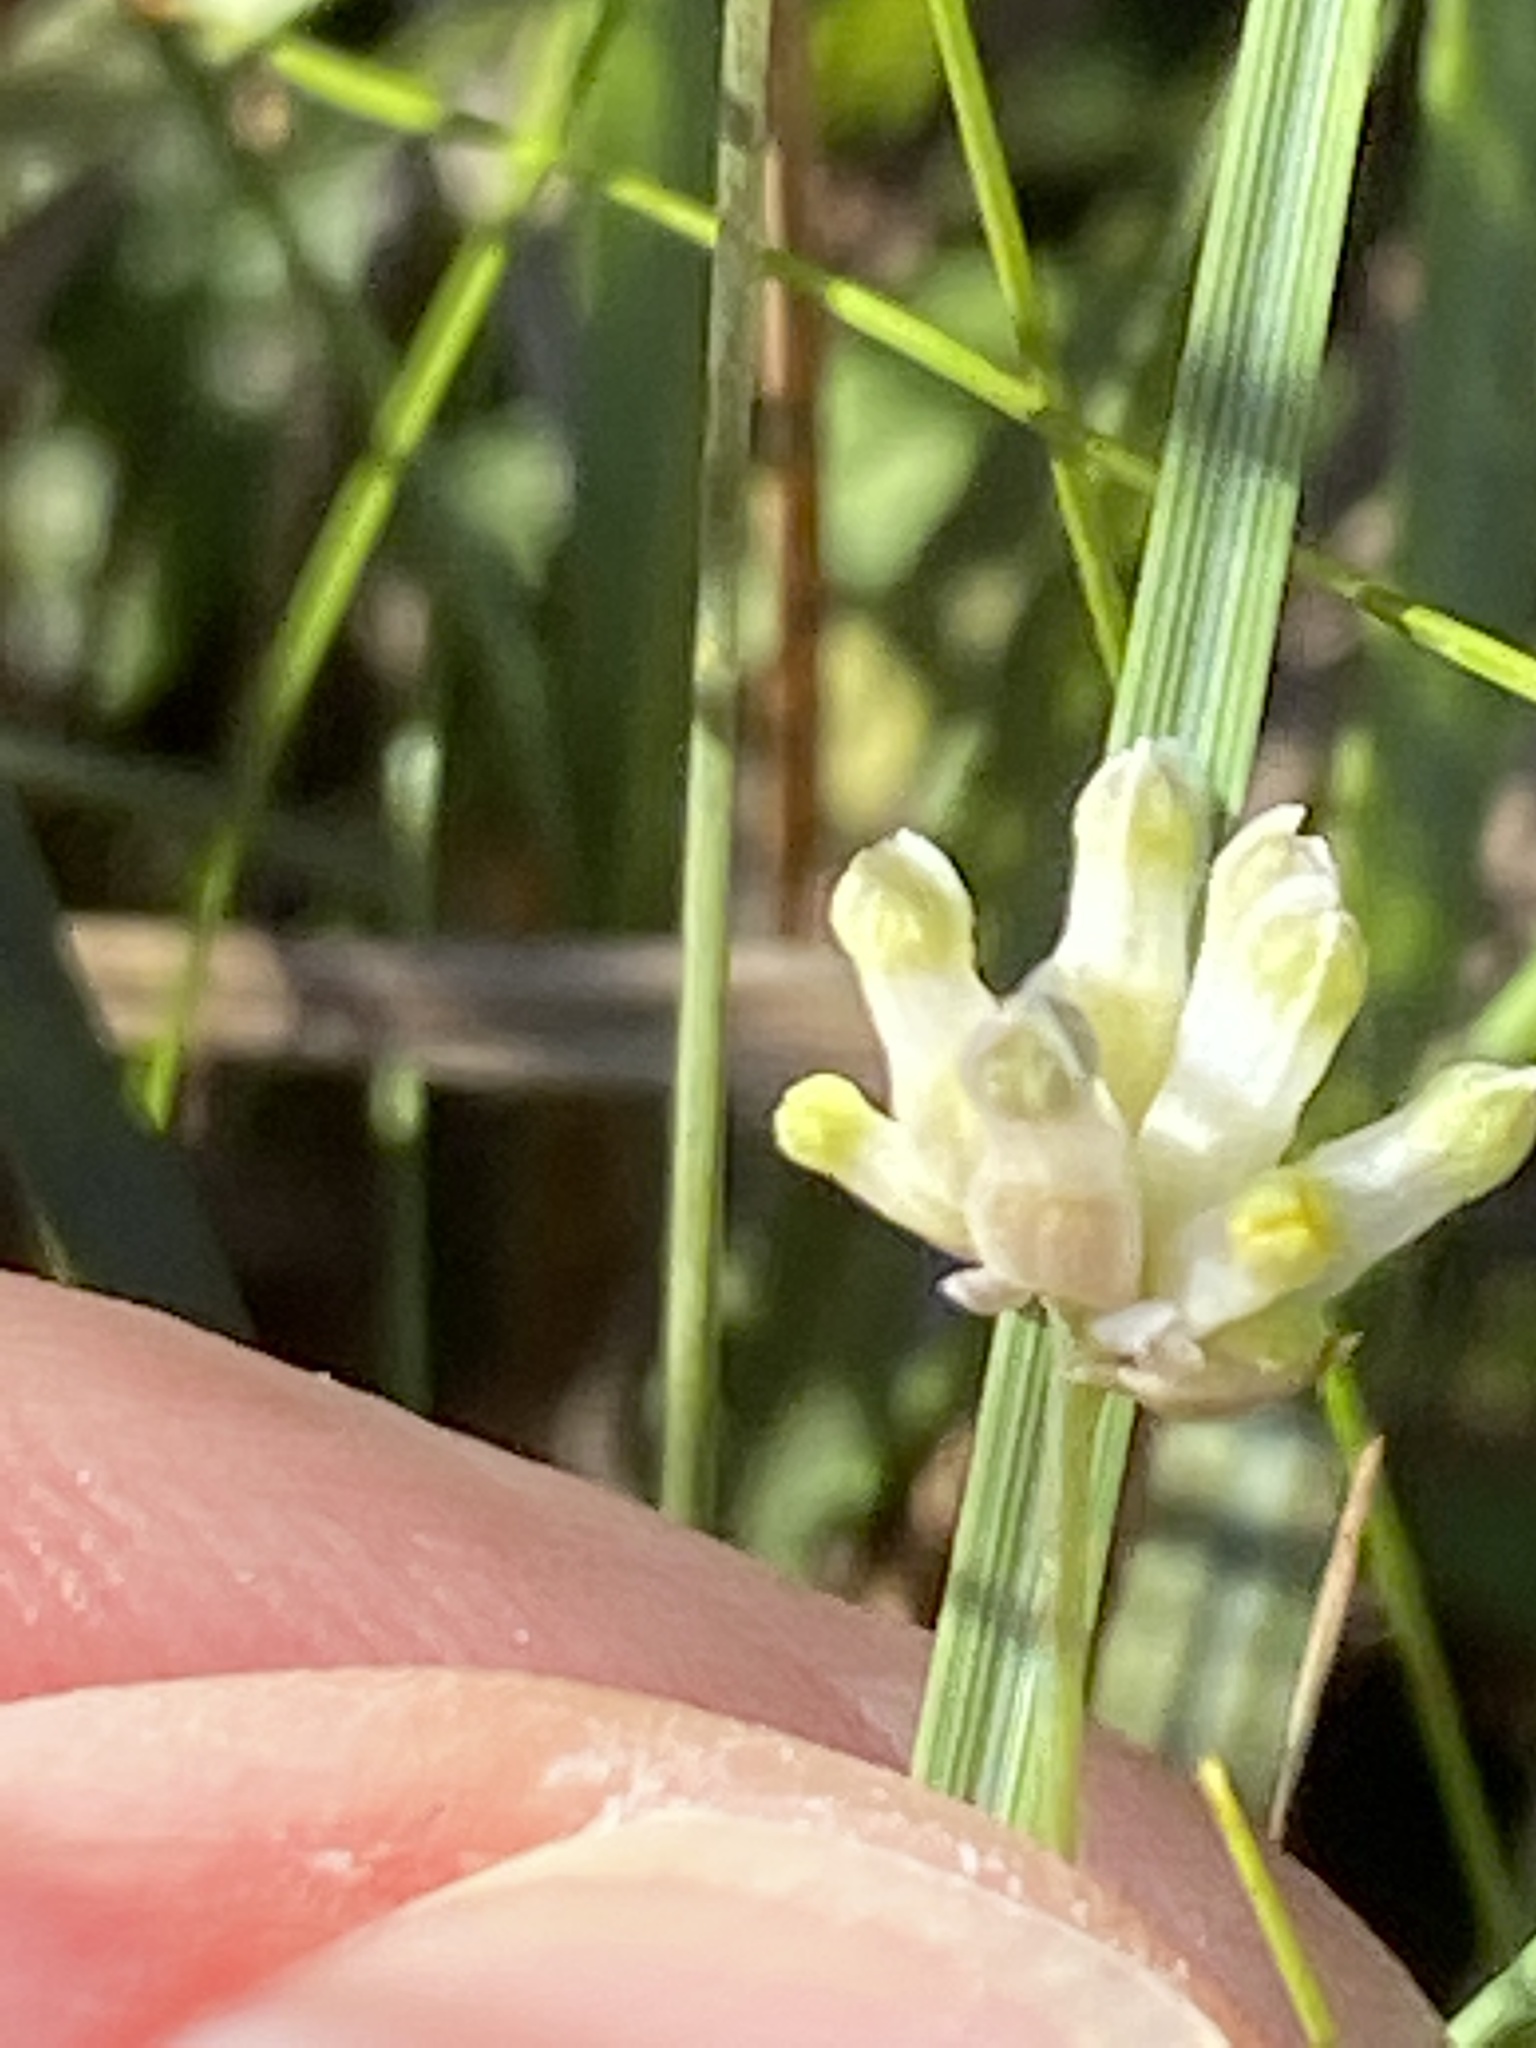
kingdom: Plantae
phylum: Tracheophyta
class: Liliopsida
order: Dioscoreales
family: Burmanniaceae
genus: Burmannia
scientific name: Burmannia capitata
